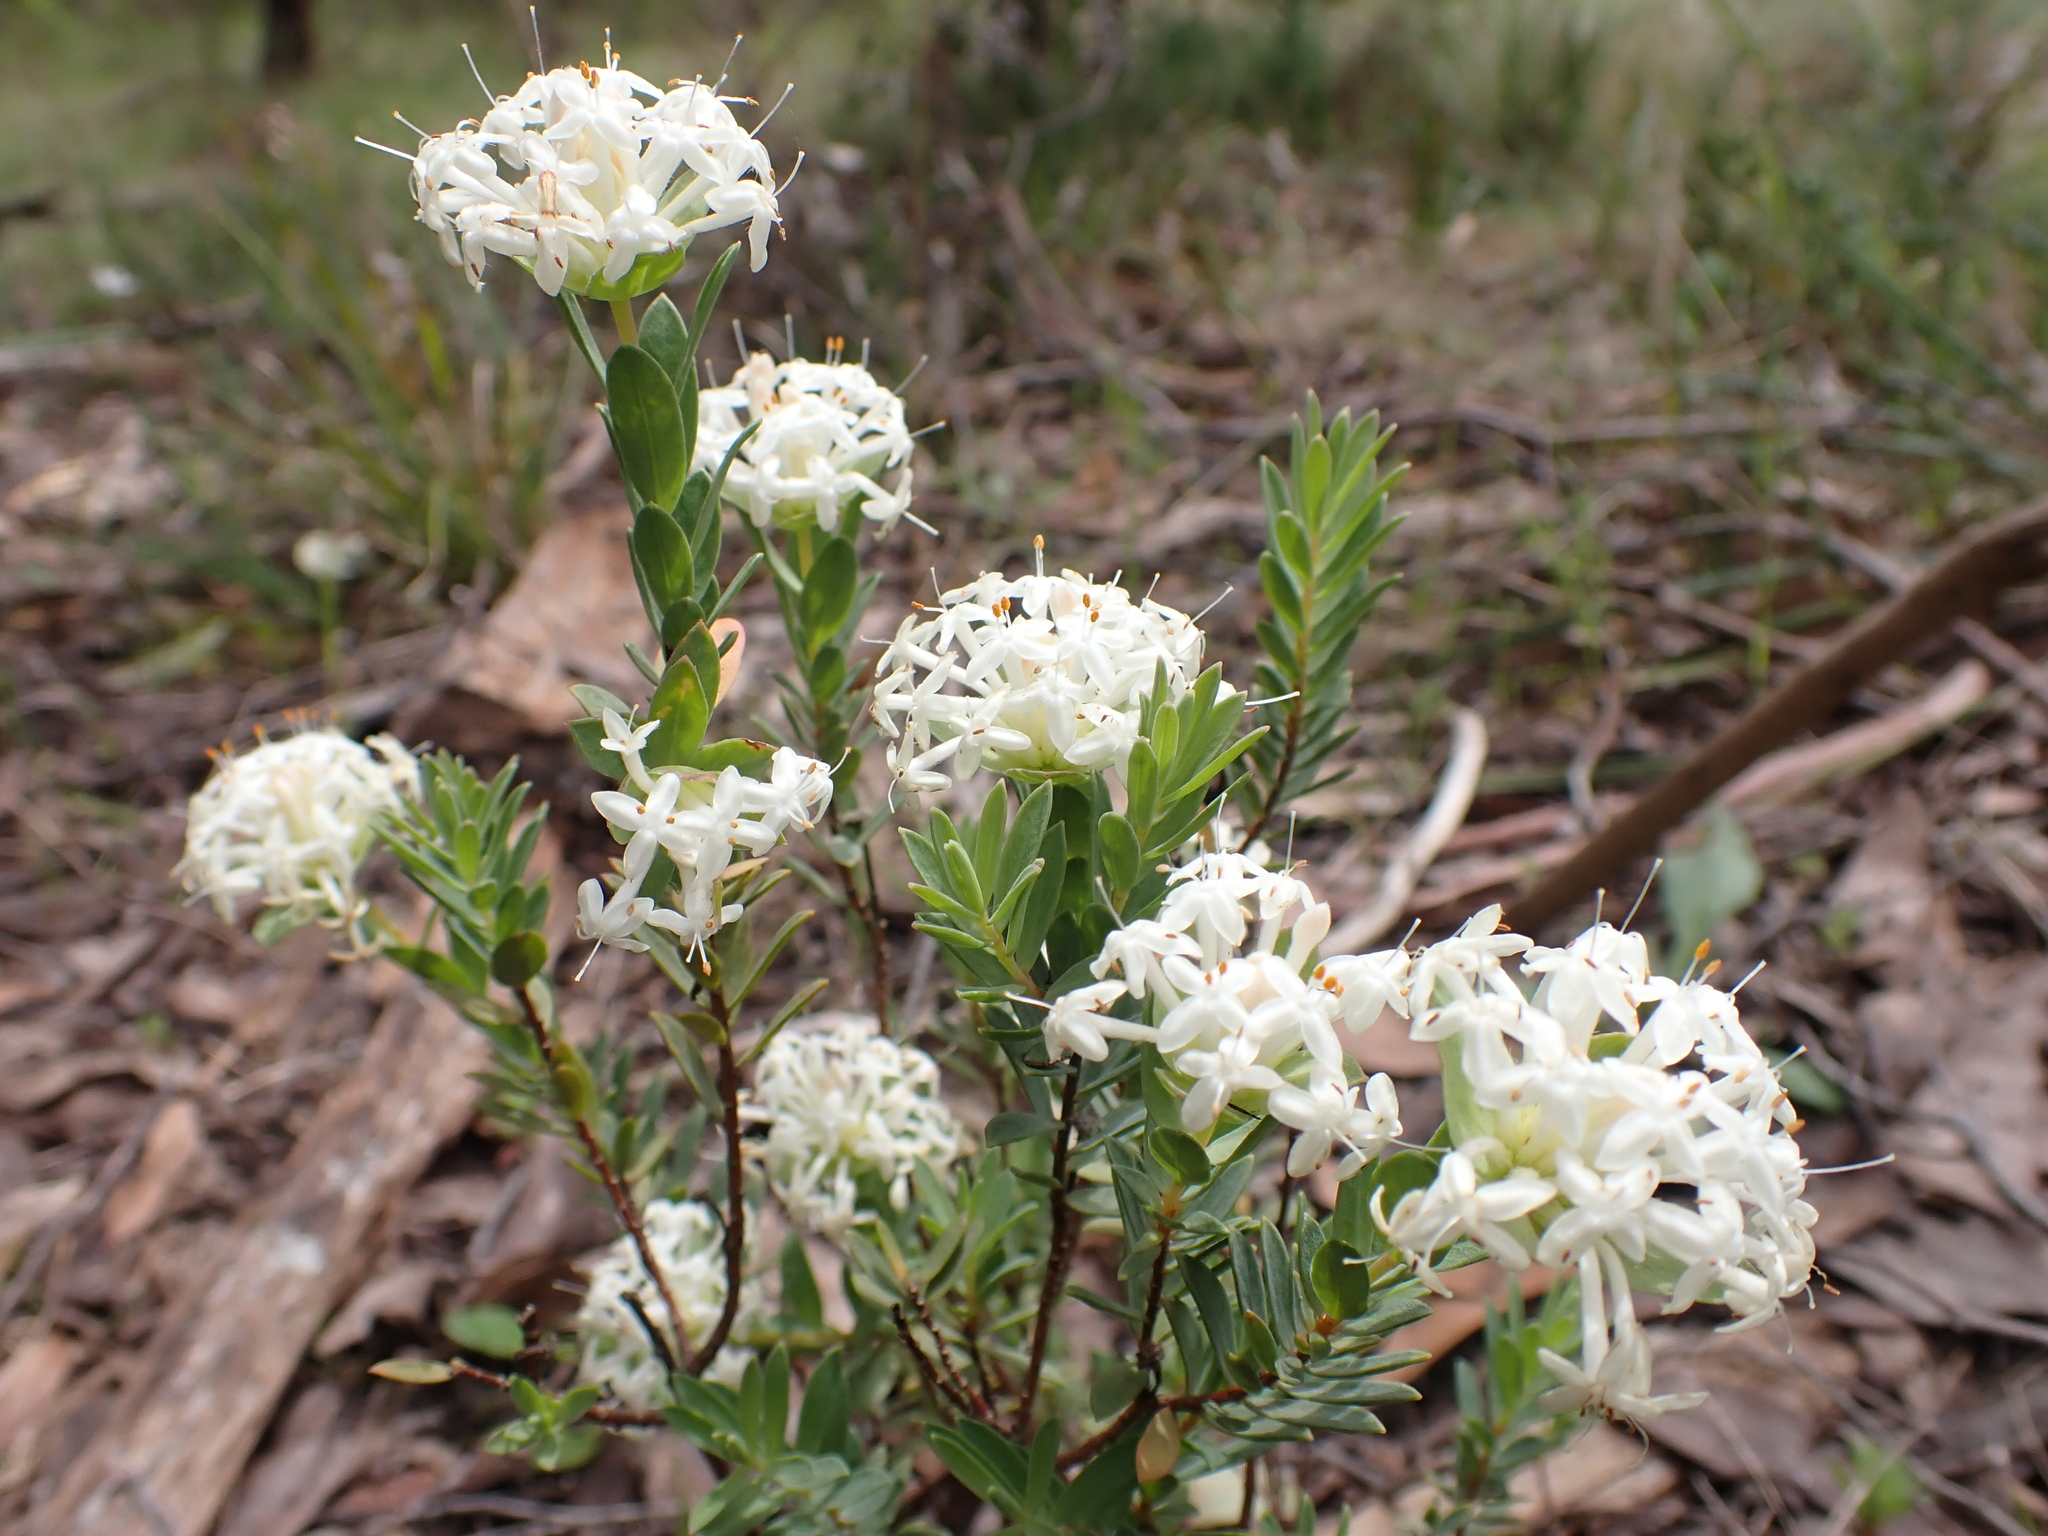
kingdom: Plantae
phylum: Tracheophyta
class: Magnoliopsida
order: Malvales
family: Thymelaeaceae
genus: Pimelea
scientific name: Pimelea humilis
